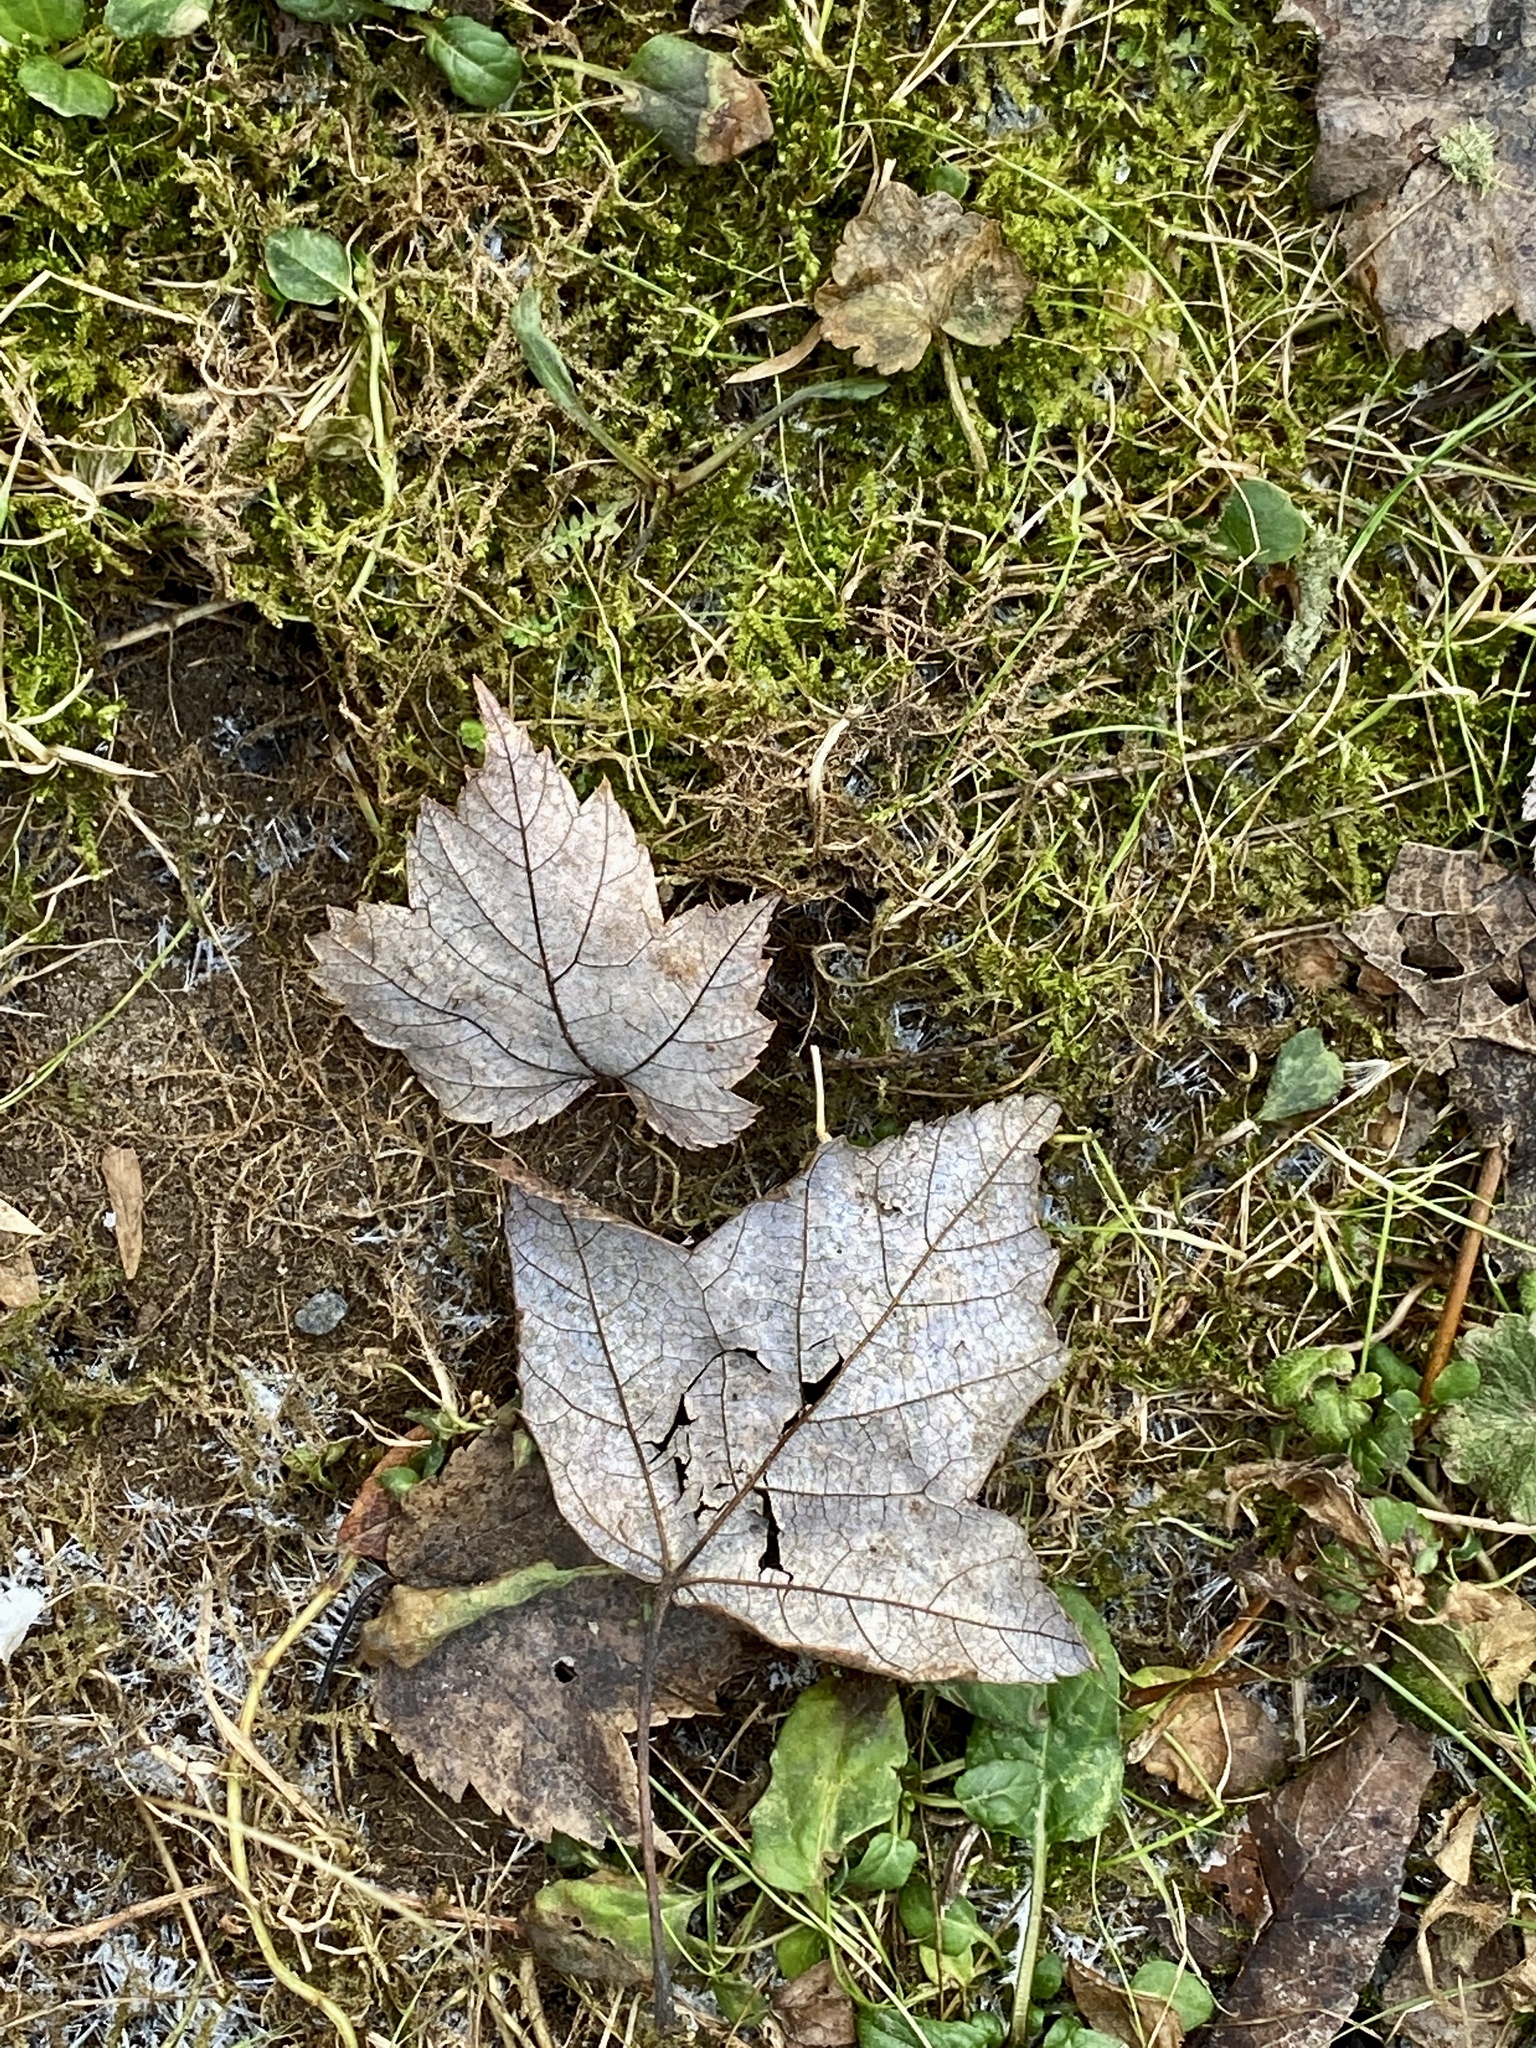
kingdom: Plantae
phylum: Tracheophyta
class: Magnoliopsida
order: Sapindales
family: Sapindaceae
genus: Acer
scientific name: Acer rubrum
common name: Red maple
